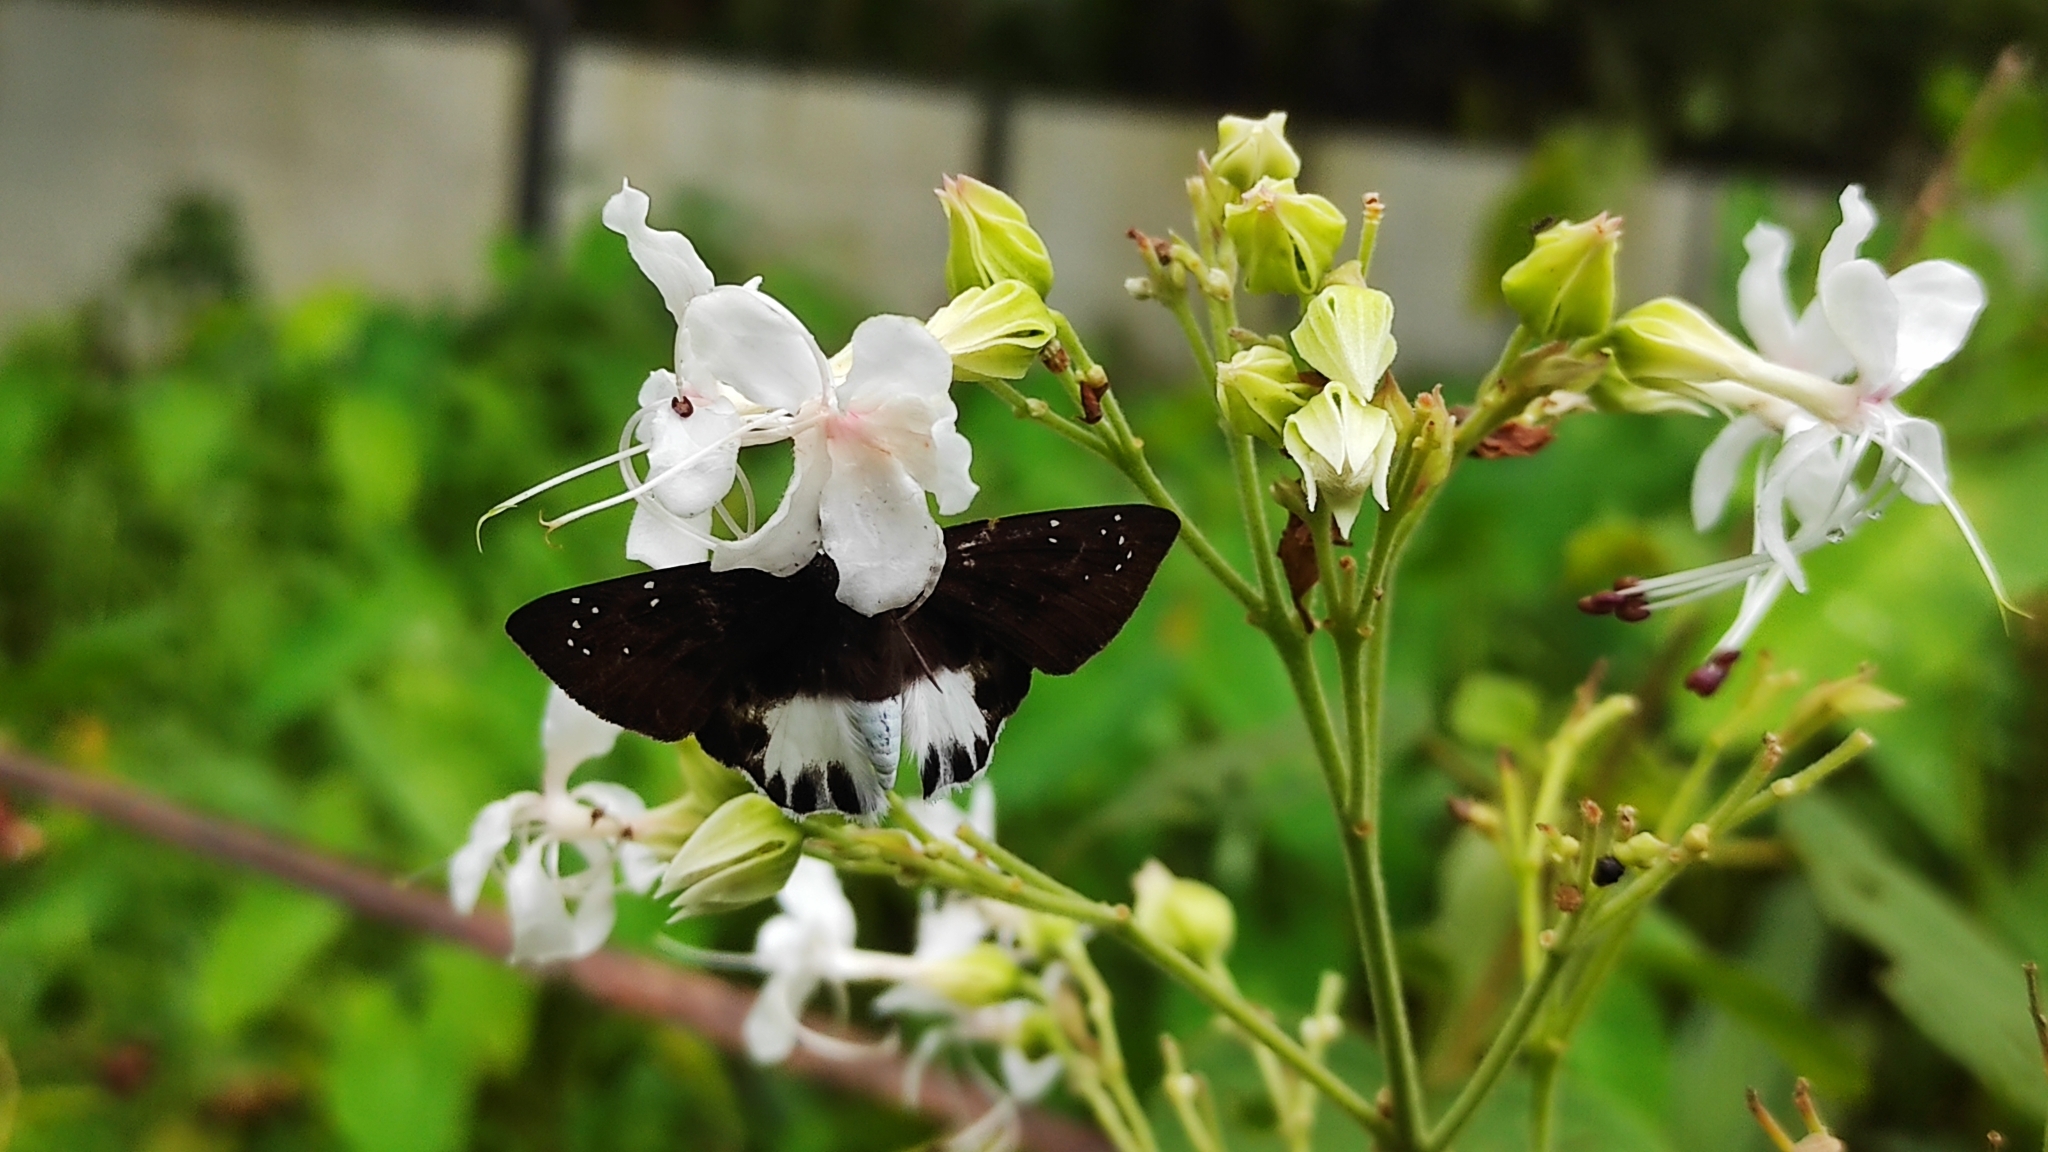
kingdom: Animalia
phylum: Arthropoda
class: Insecta
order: Lepidoptera
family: Hesperiidae
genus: Tagiades
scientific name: Tagiades litigiosa
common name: Water snow flat
